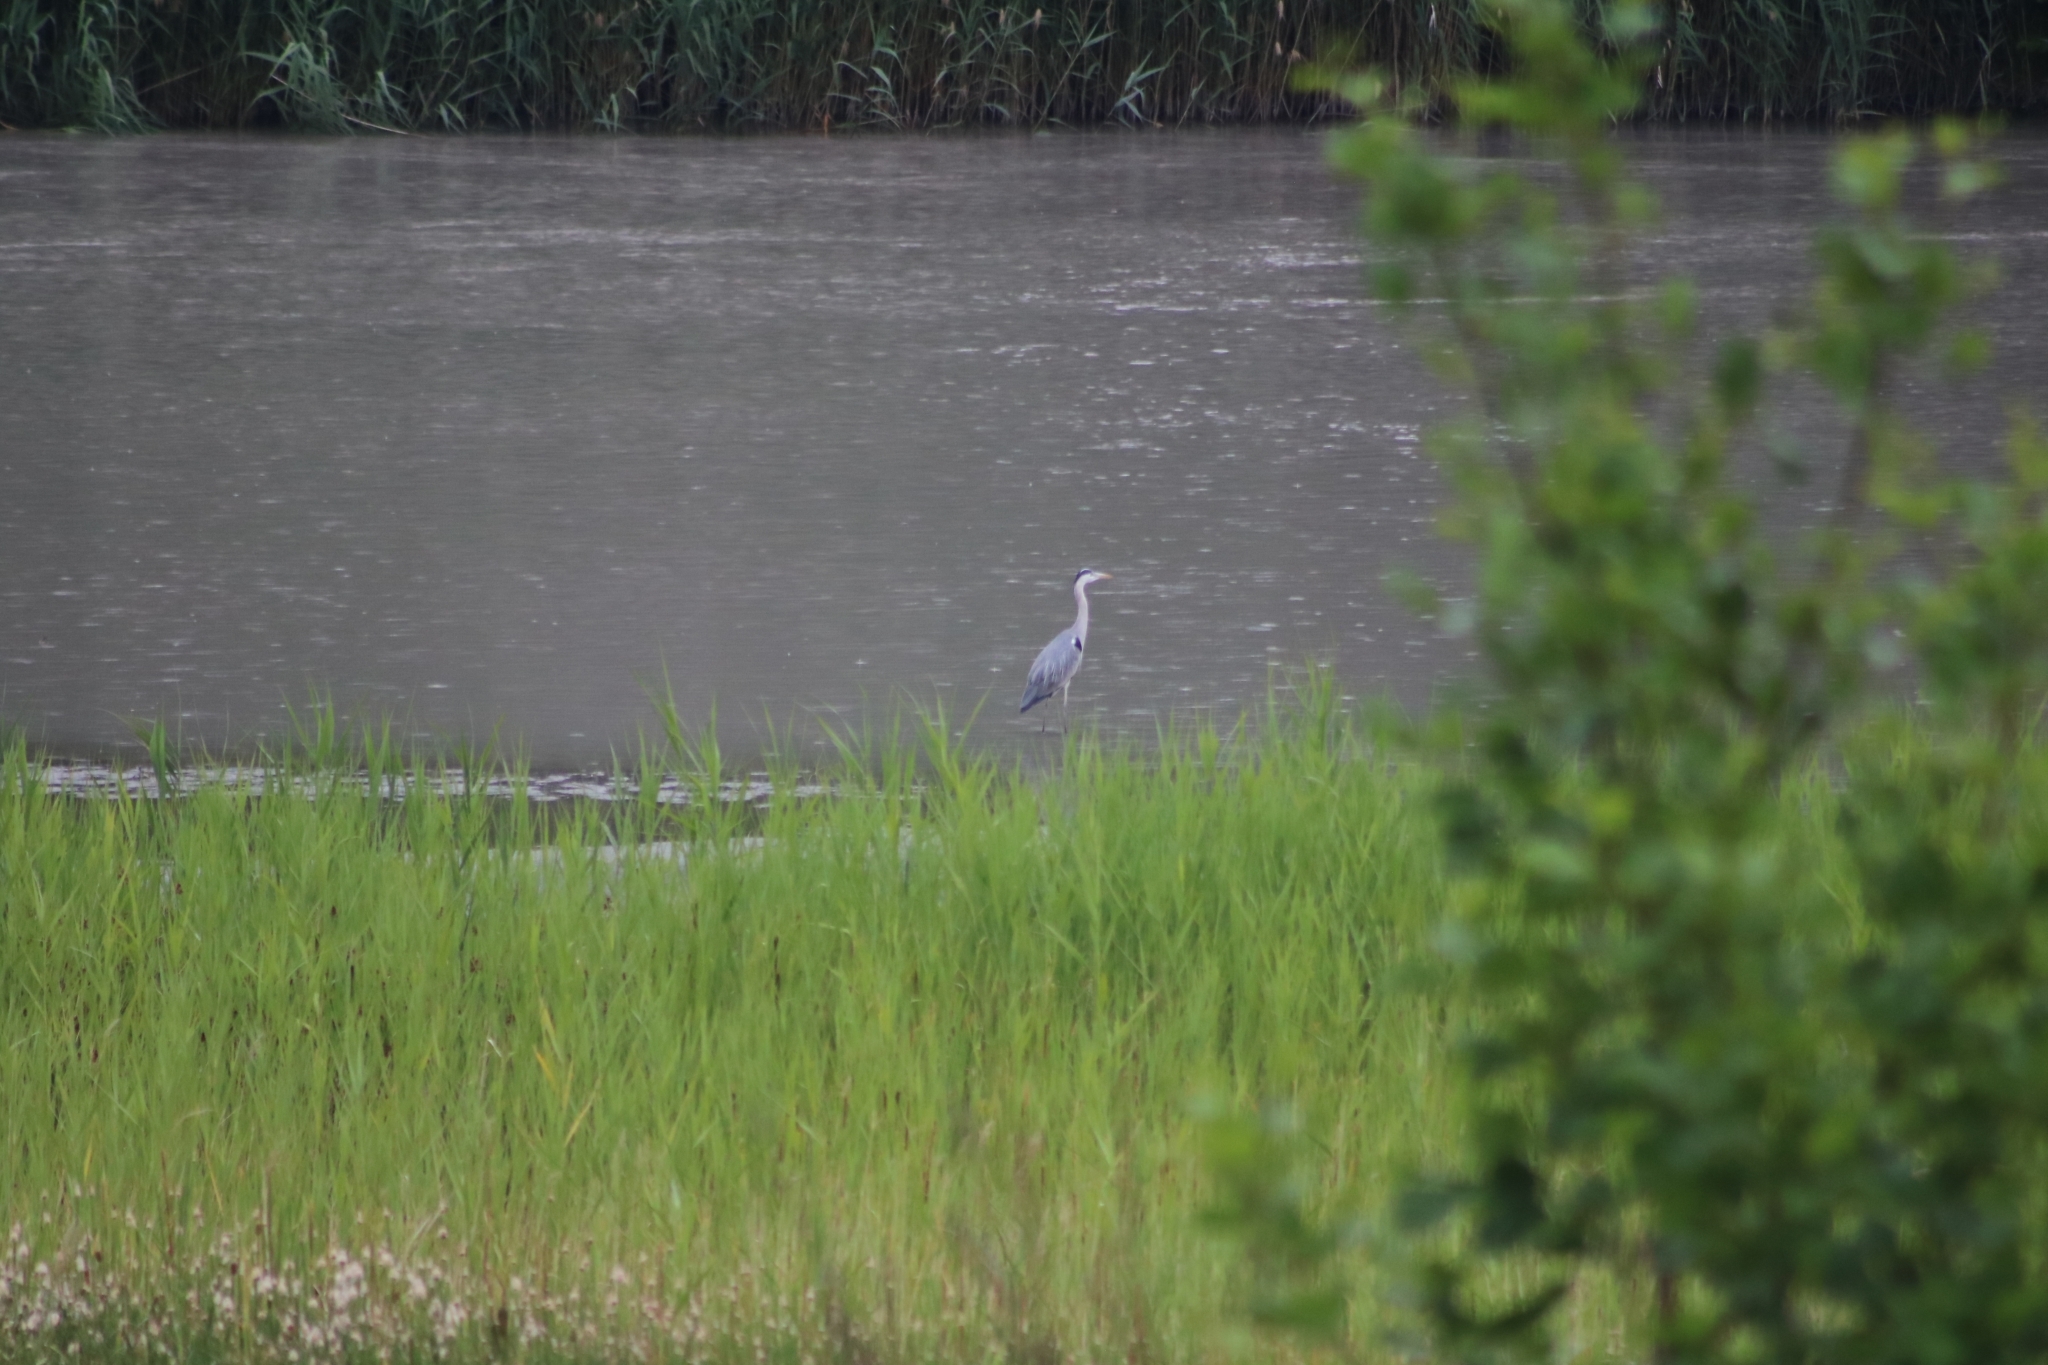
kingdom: Animalia
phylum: Chordata
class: Aves
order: Pelecaniformes
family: Ardeidae
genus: Ardea
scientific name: Ardea cinerea
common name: Grey heron
